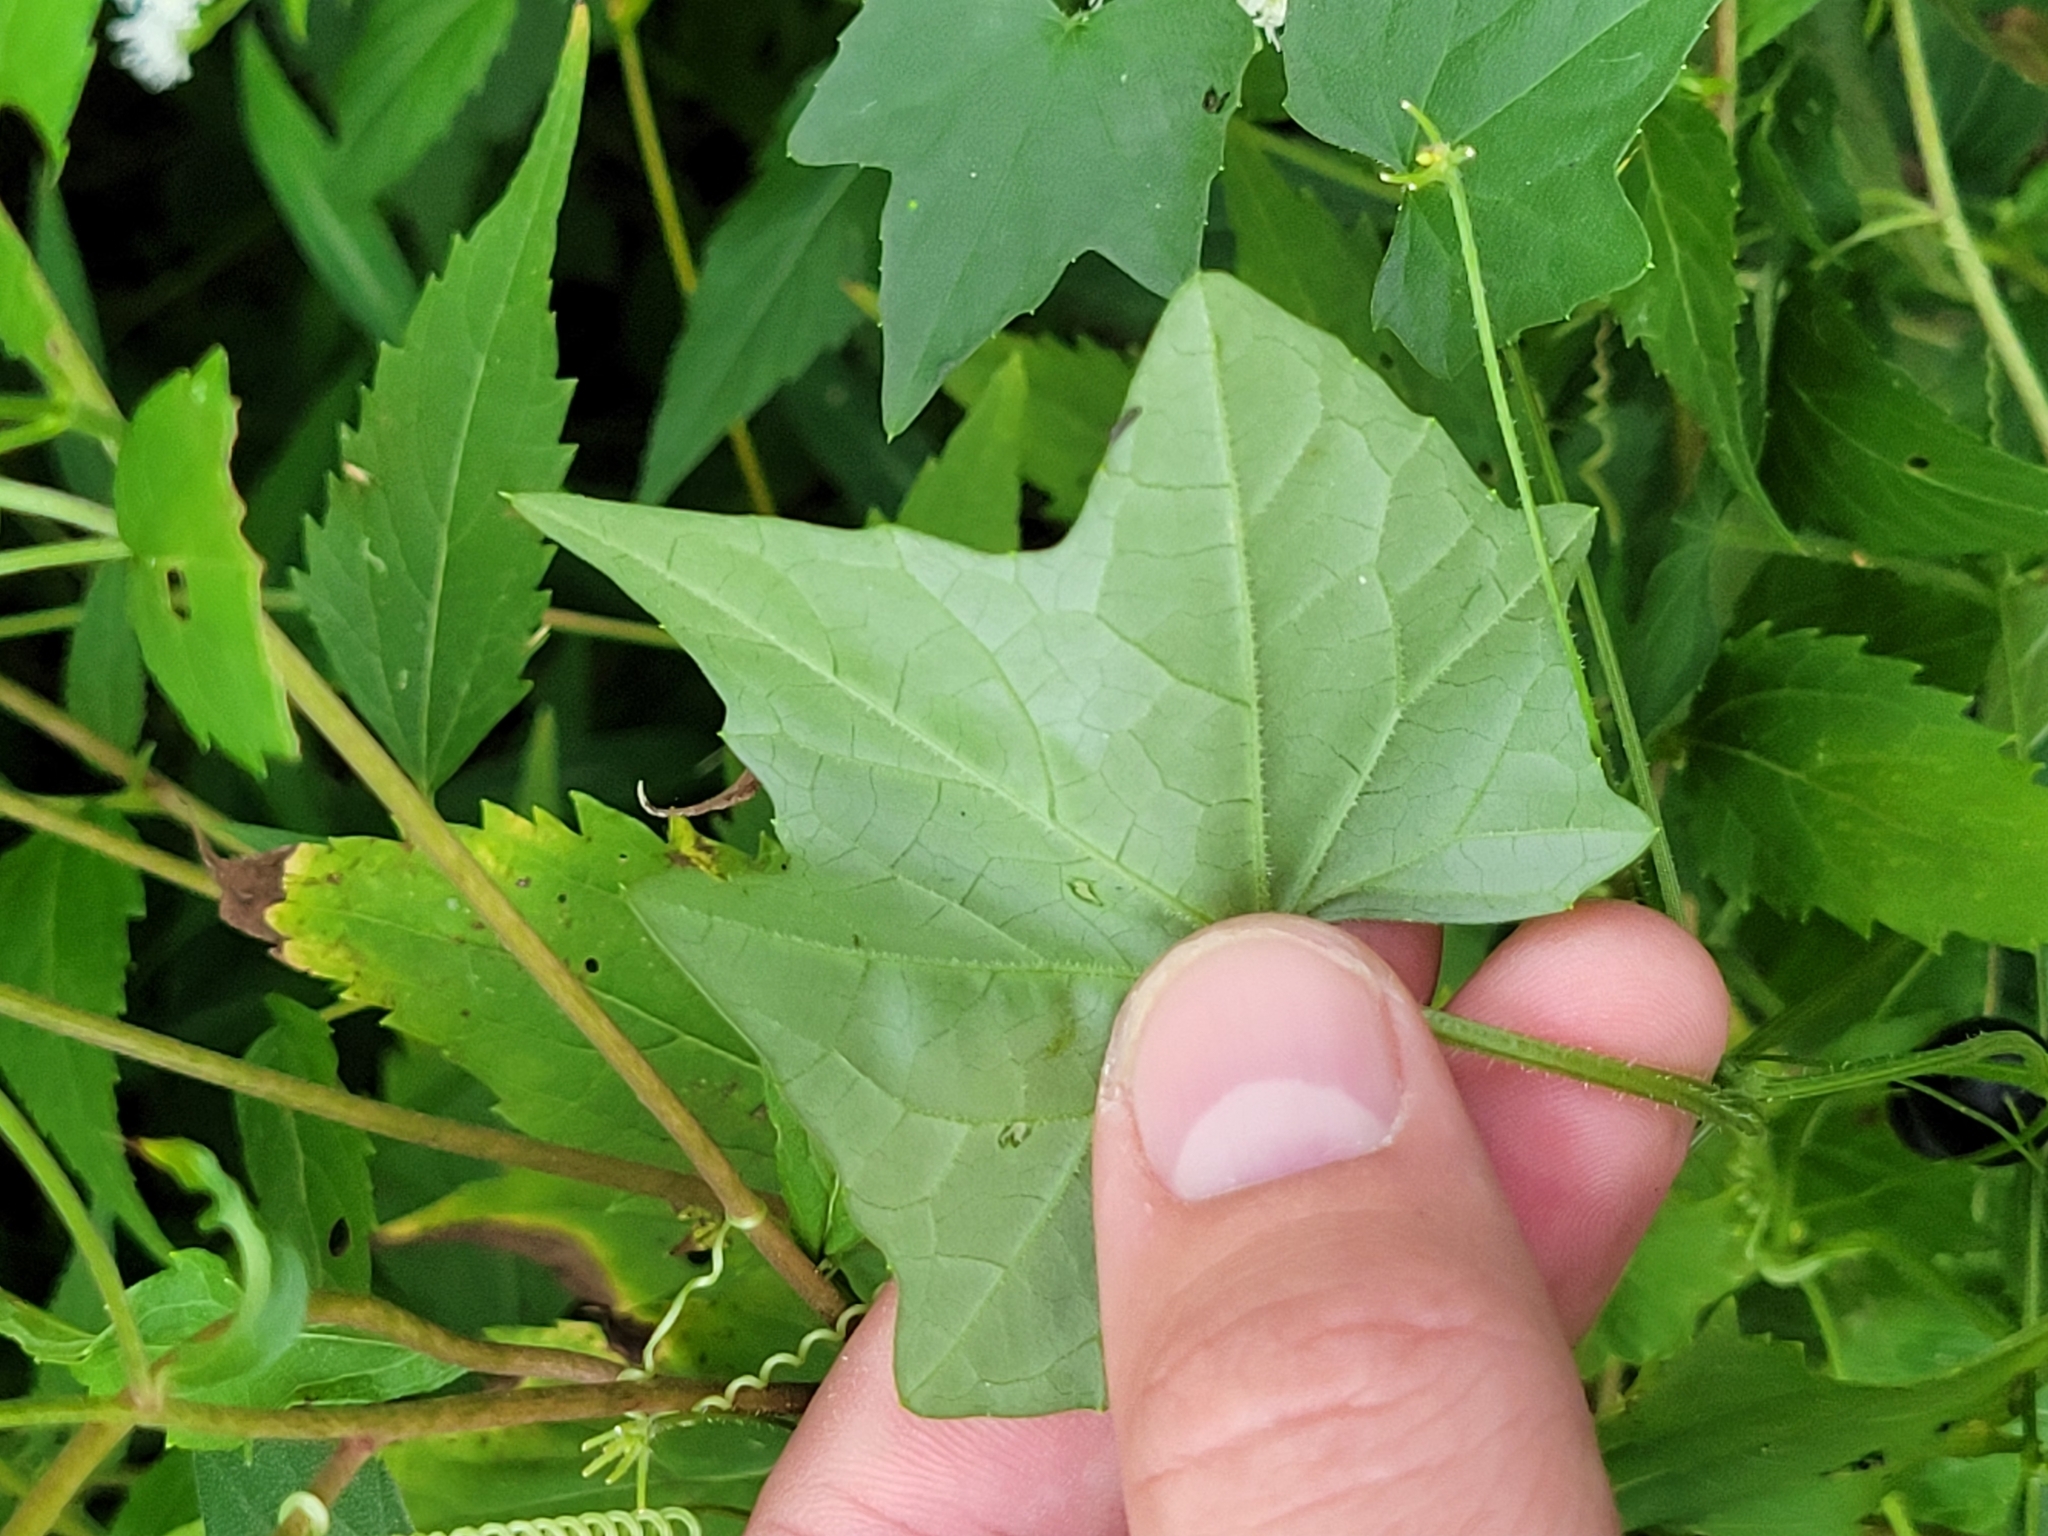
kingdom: Plantae
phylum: Tracheophyta
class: Magnoliopsida
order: Cucurbitales
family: Cucurbitaceae
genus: Melothria
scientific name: Melothria pendula
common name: Creeping-cucumber
